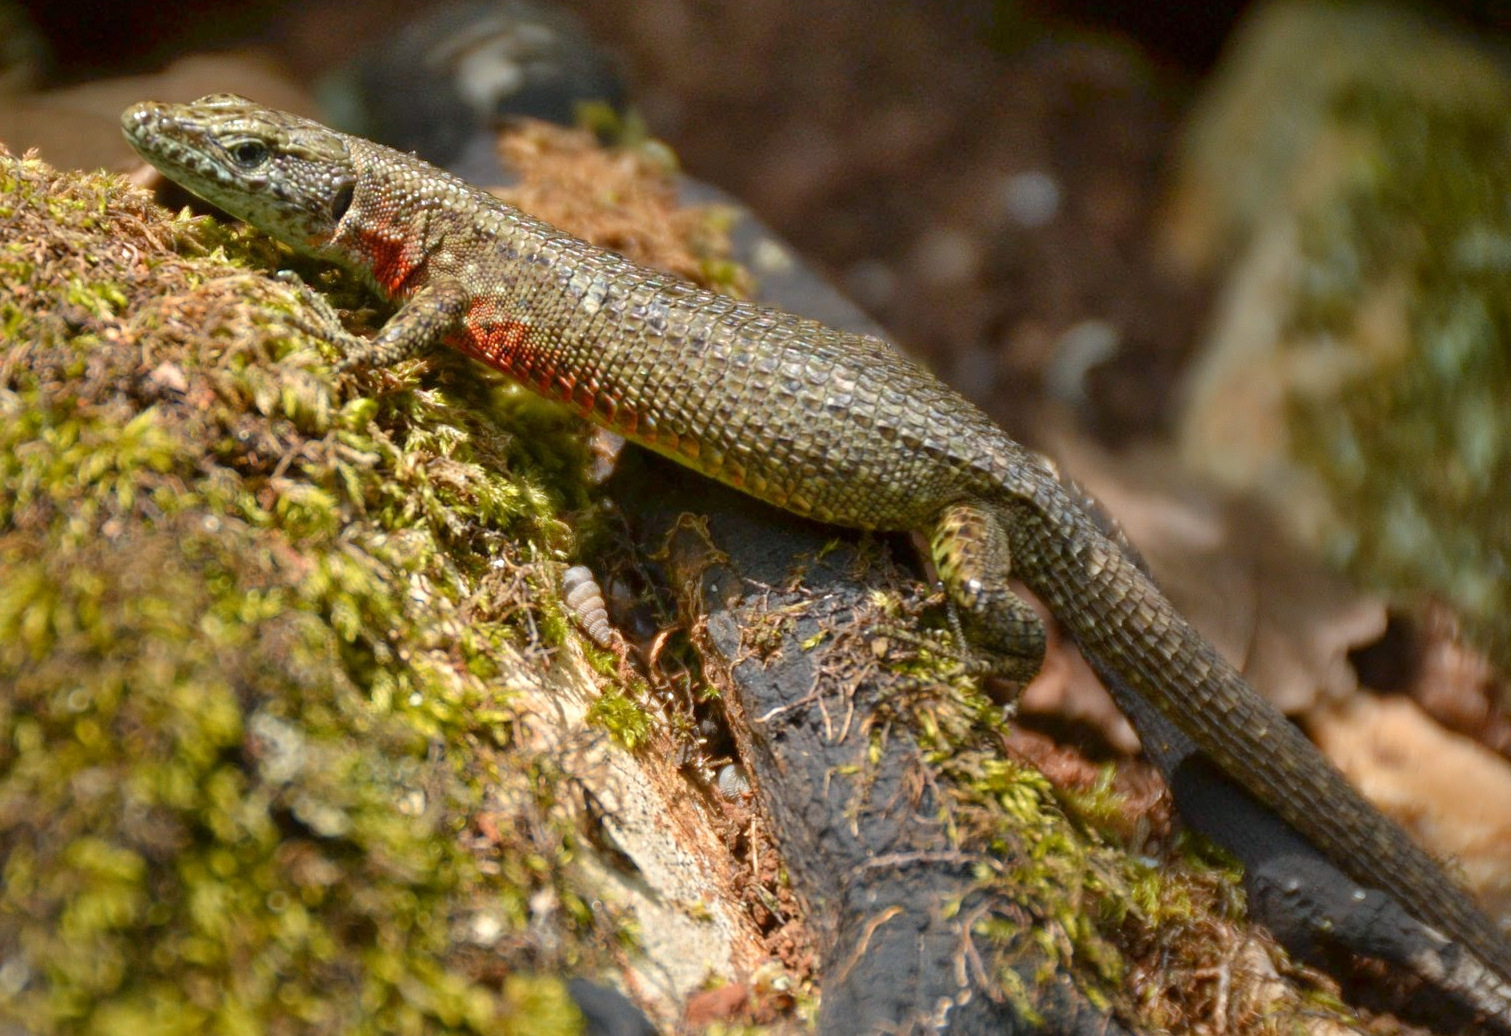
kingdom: Animalia
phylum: Chordata
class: Squamata
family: Lacertidae
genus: Algyroides
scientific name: Algyroides nigropunctatus
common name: Blue-throated keeled lizard
